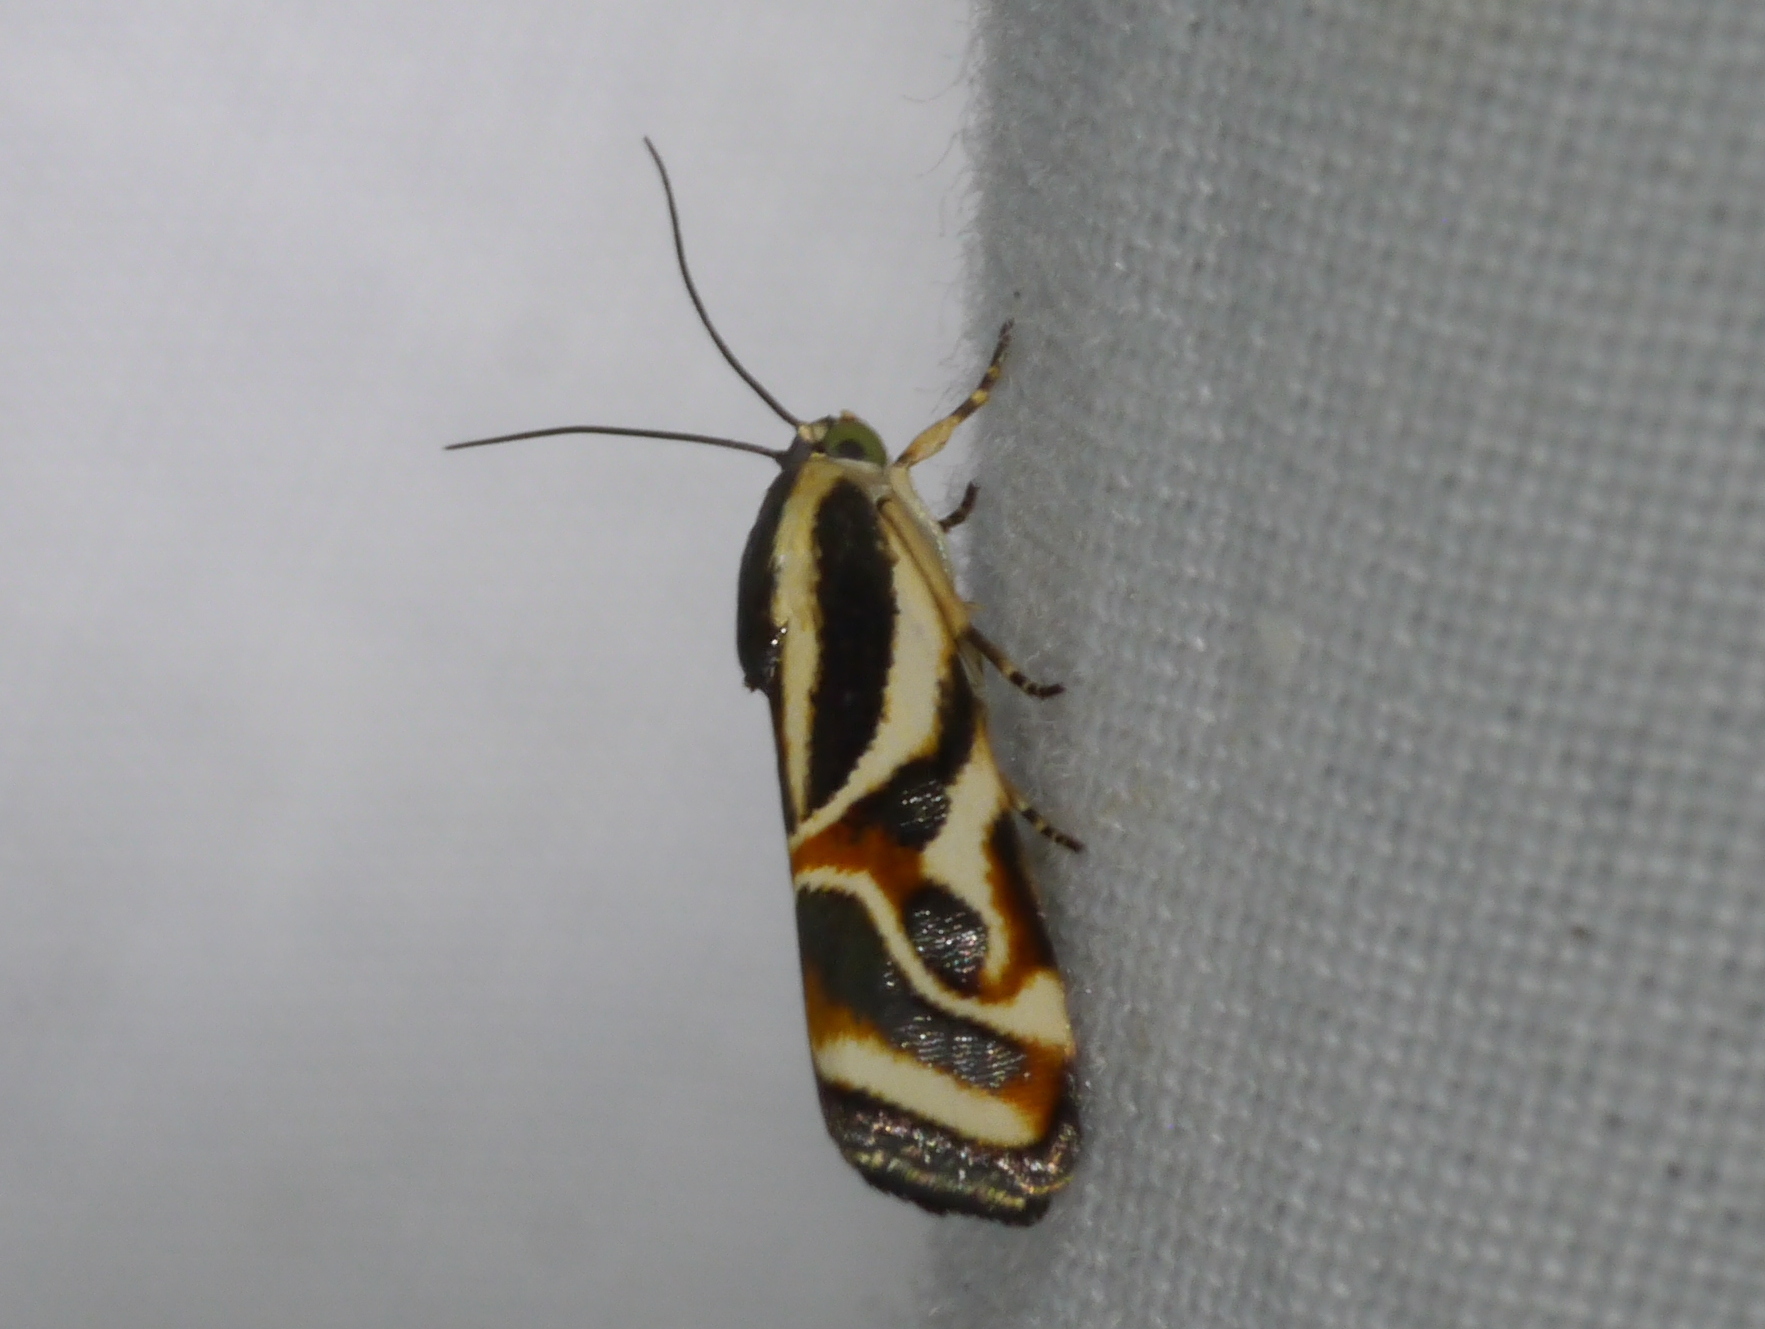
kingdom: Animalia
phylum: Arthropoda
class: Insecta
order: Lepidoptera
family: Noctuidae
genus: Spragueia
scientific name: Spragueia magnifica
